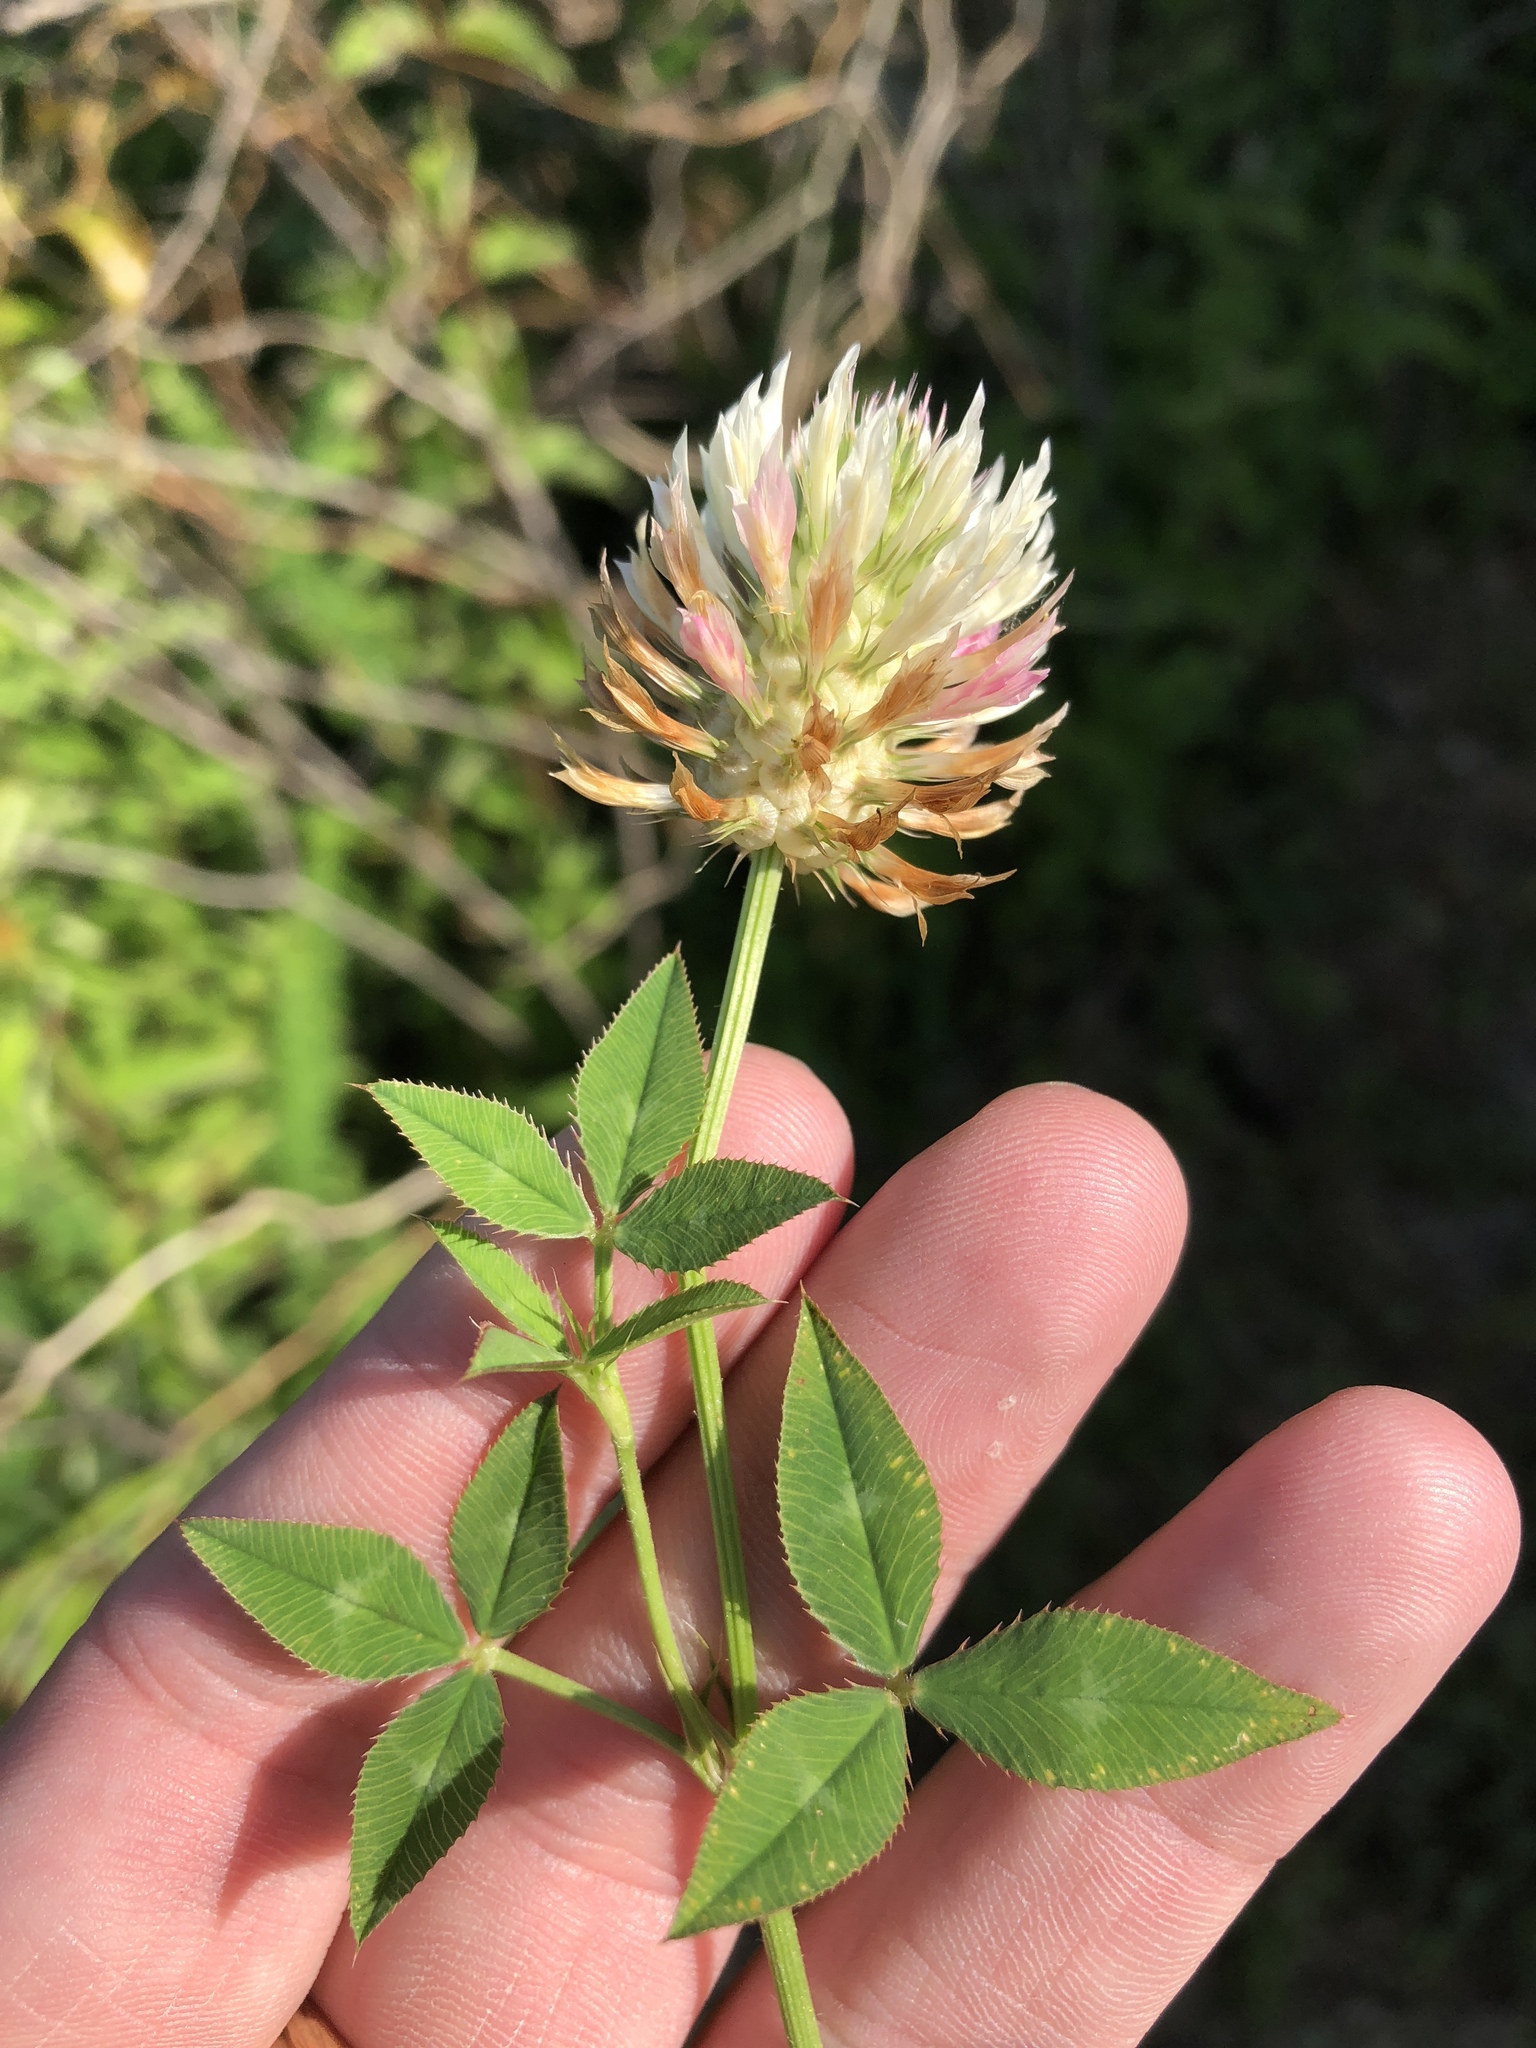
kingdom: Plantae
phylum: Tracheophyta
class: Magnoliopsida
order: Fabales
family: Fabaceae
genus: Trifolium
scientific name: Trifolium vesiculosum
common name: Arrowleaf clover
